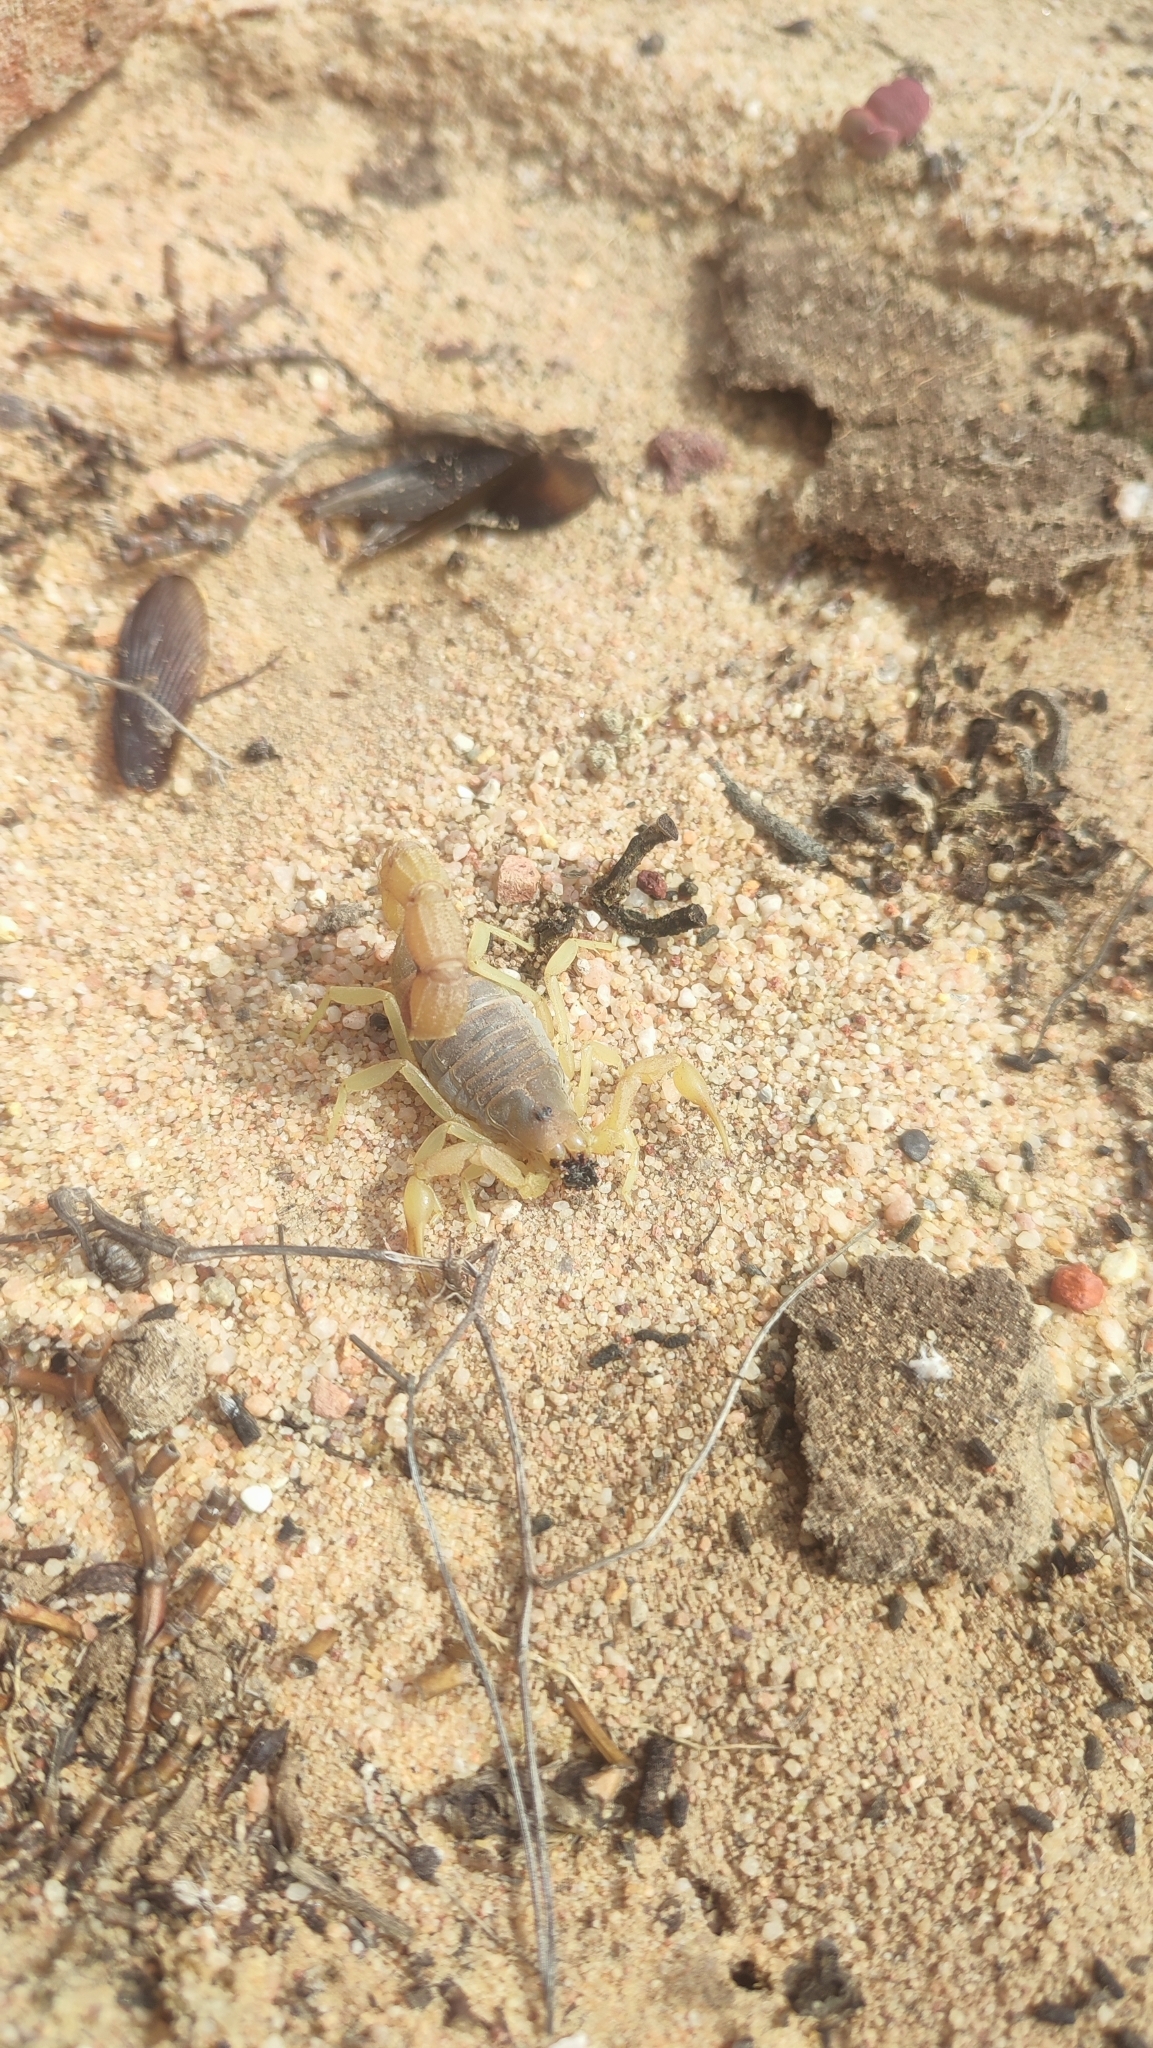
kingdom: Animalia
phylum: Arthropoda
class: Arachnida
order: Scorpiones
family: Buthidae
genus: Parabuthus
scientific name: Parabuthus capensis
